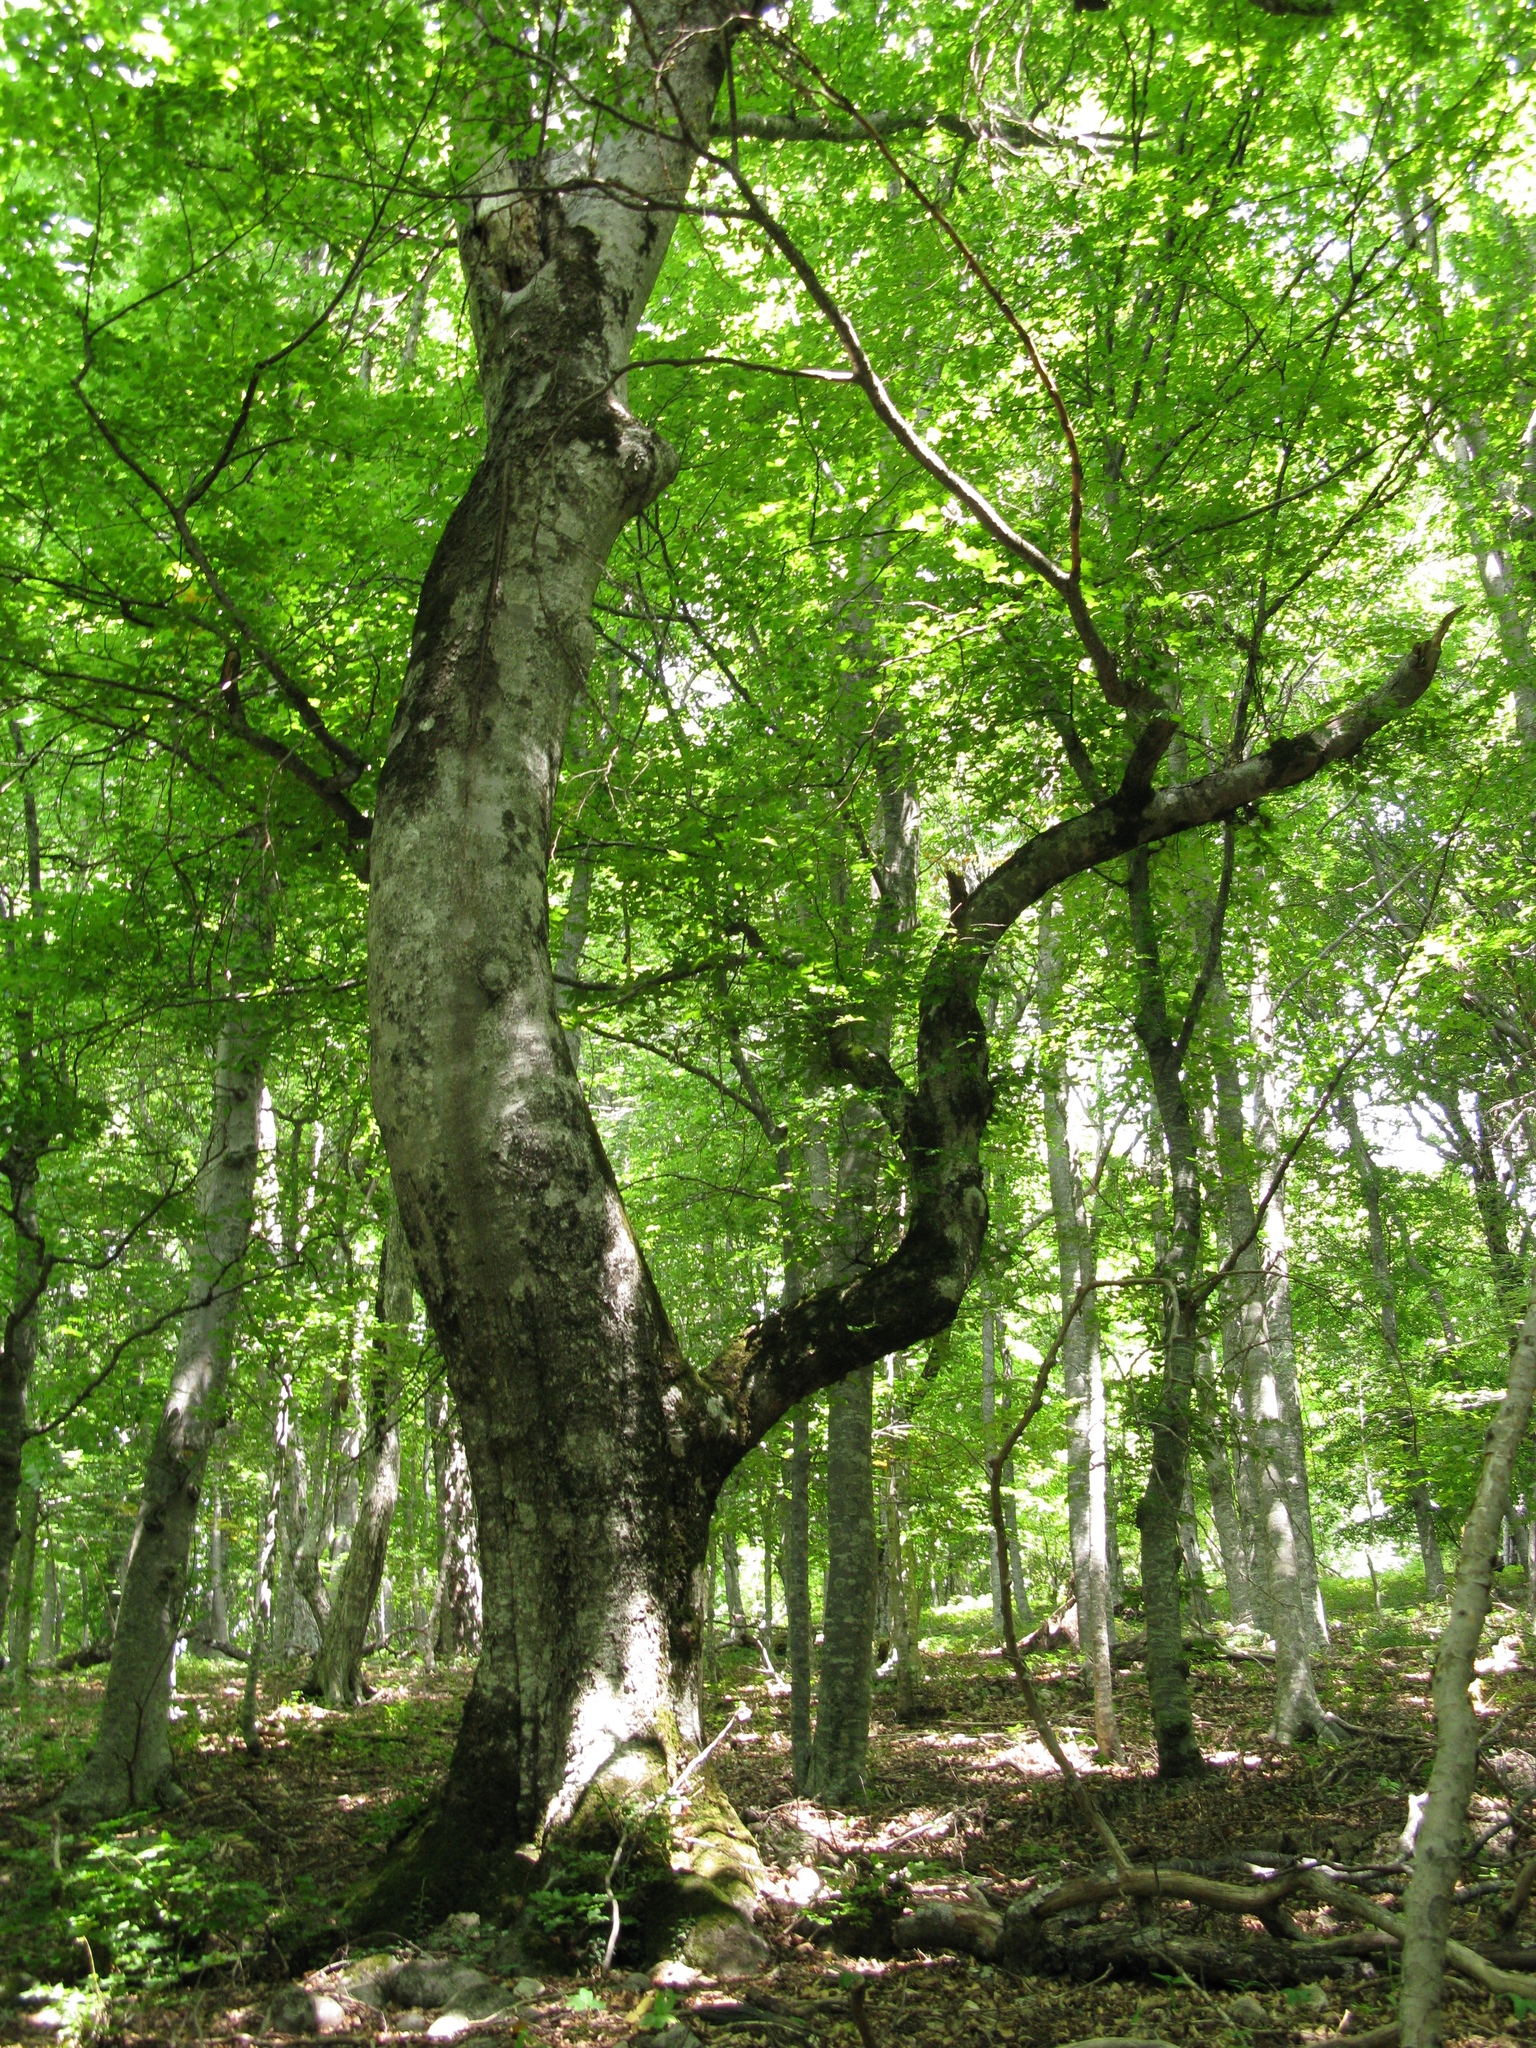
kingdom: Plantae
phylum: Tracheophyta
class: Magnoliopsida
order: Fagales
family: Fagaceae
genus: Fagus
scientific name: Fagus taurica
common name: Crimean beech
